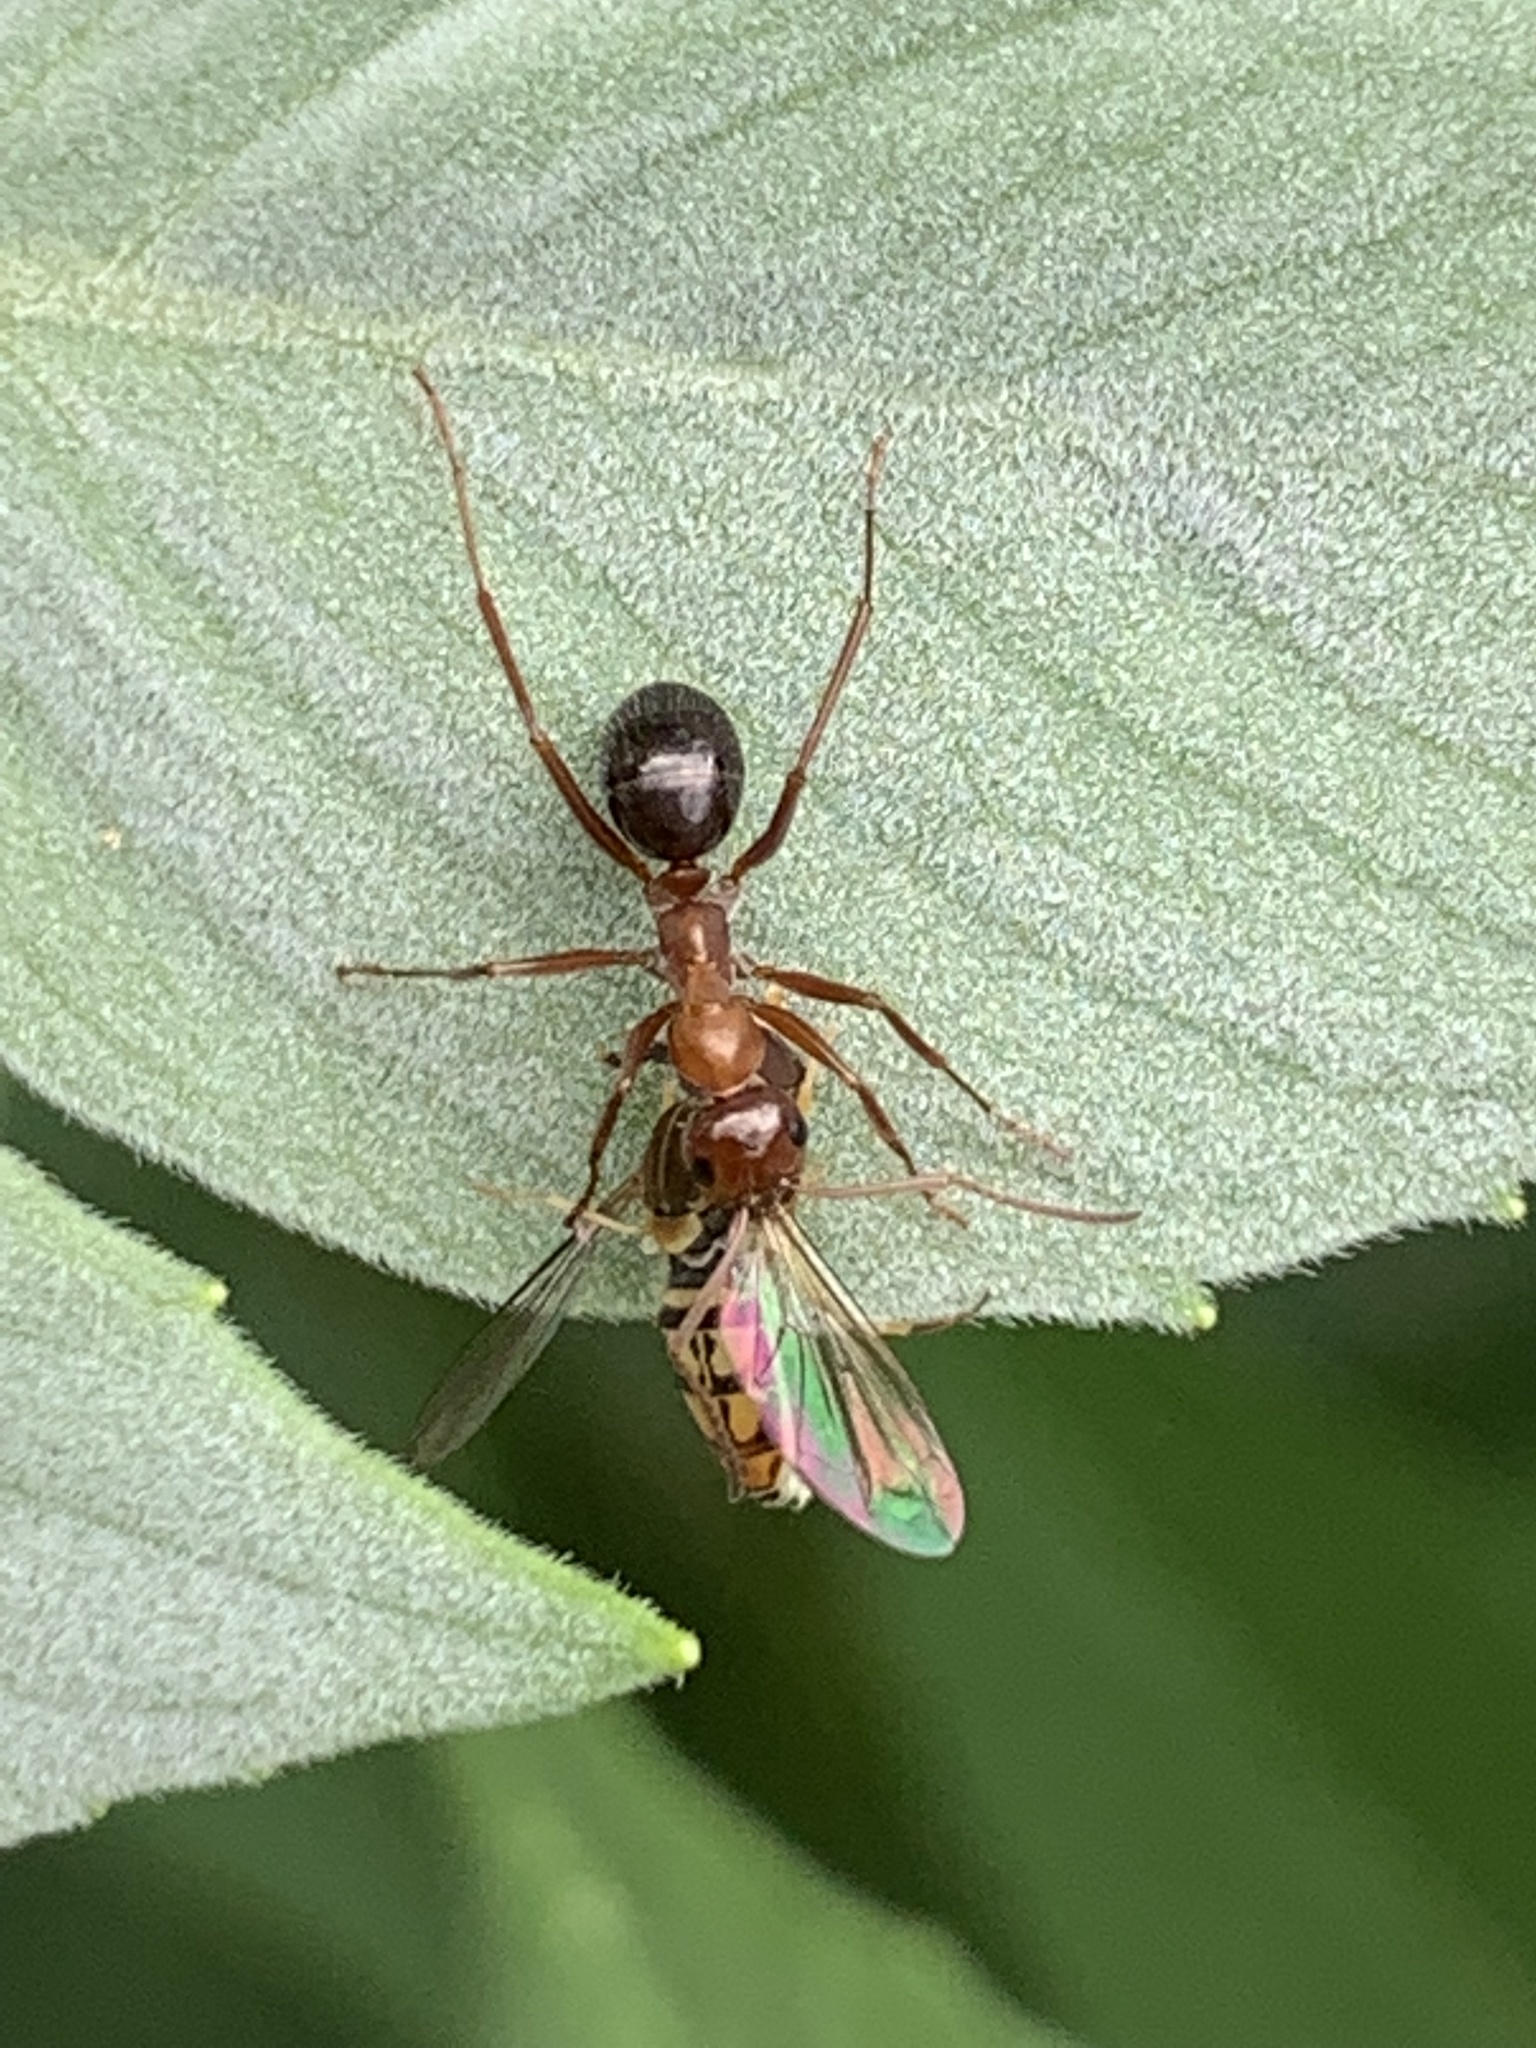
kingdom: Animalia
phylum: Arthropoda
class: Insecta
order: Hymenoptera
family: Formicidae
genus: Formica
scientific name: Formica
